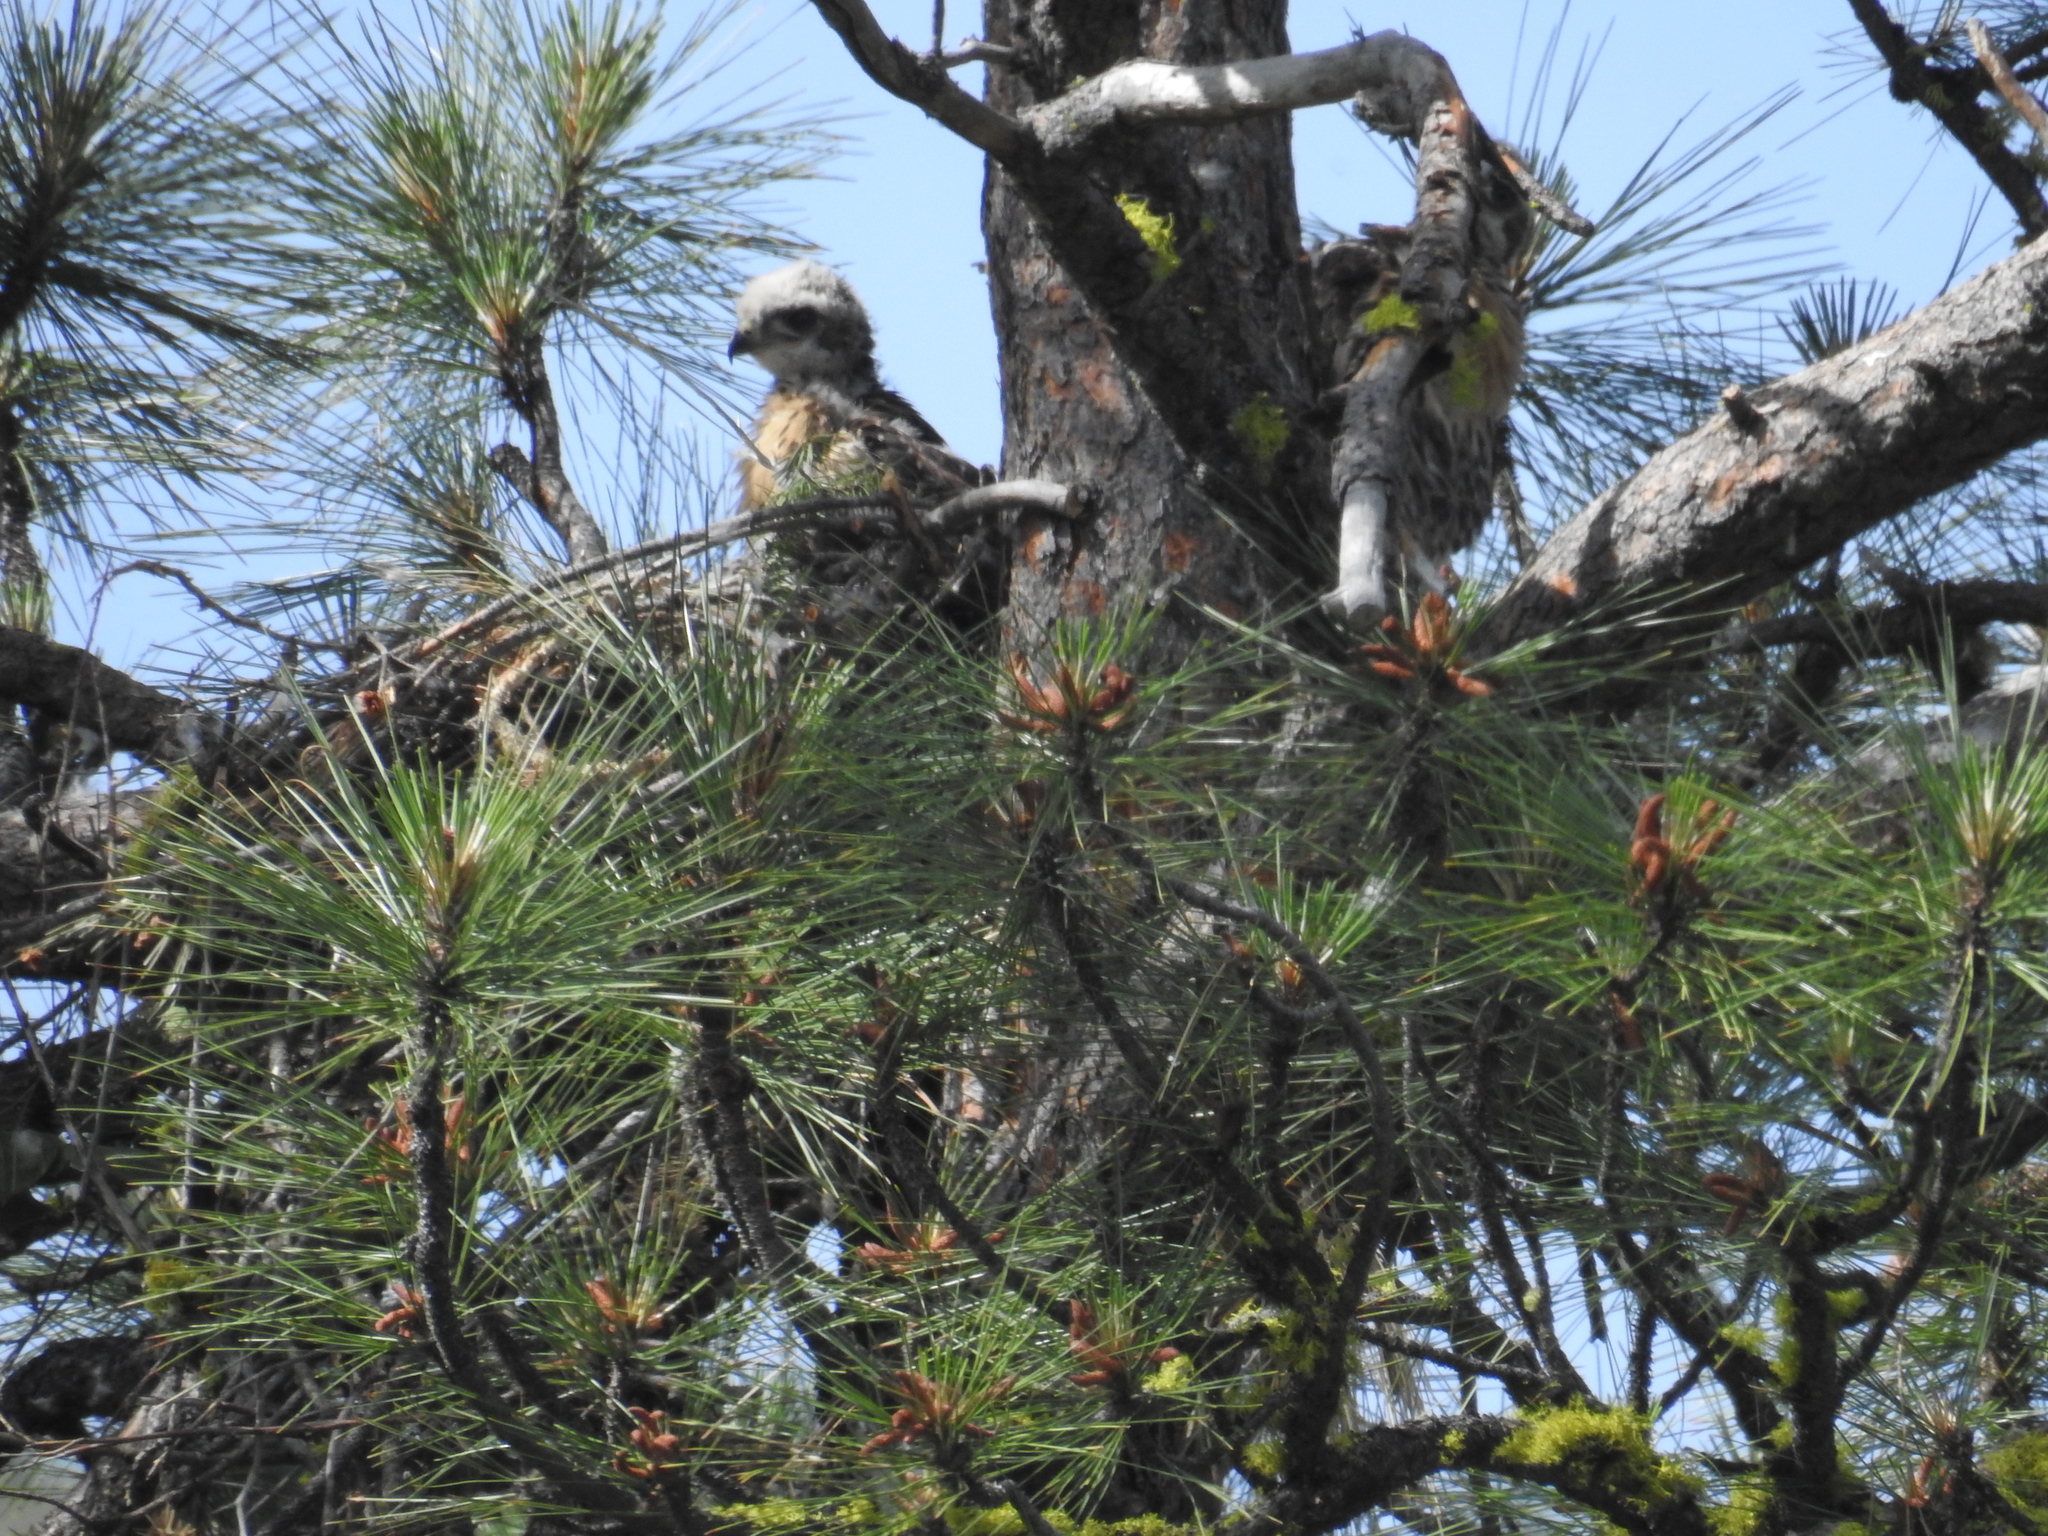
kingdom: Animalia
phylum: Chordata
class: Aves
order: Accipitriformes
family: Accipitridae
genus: Buteo
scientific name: Buteo jamaicensis
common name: Red-tailed hawk
